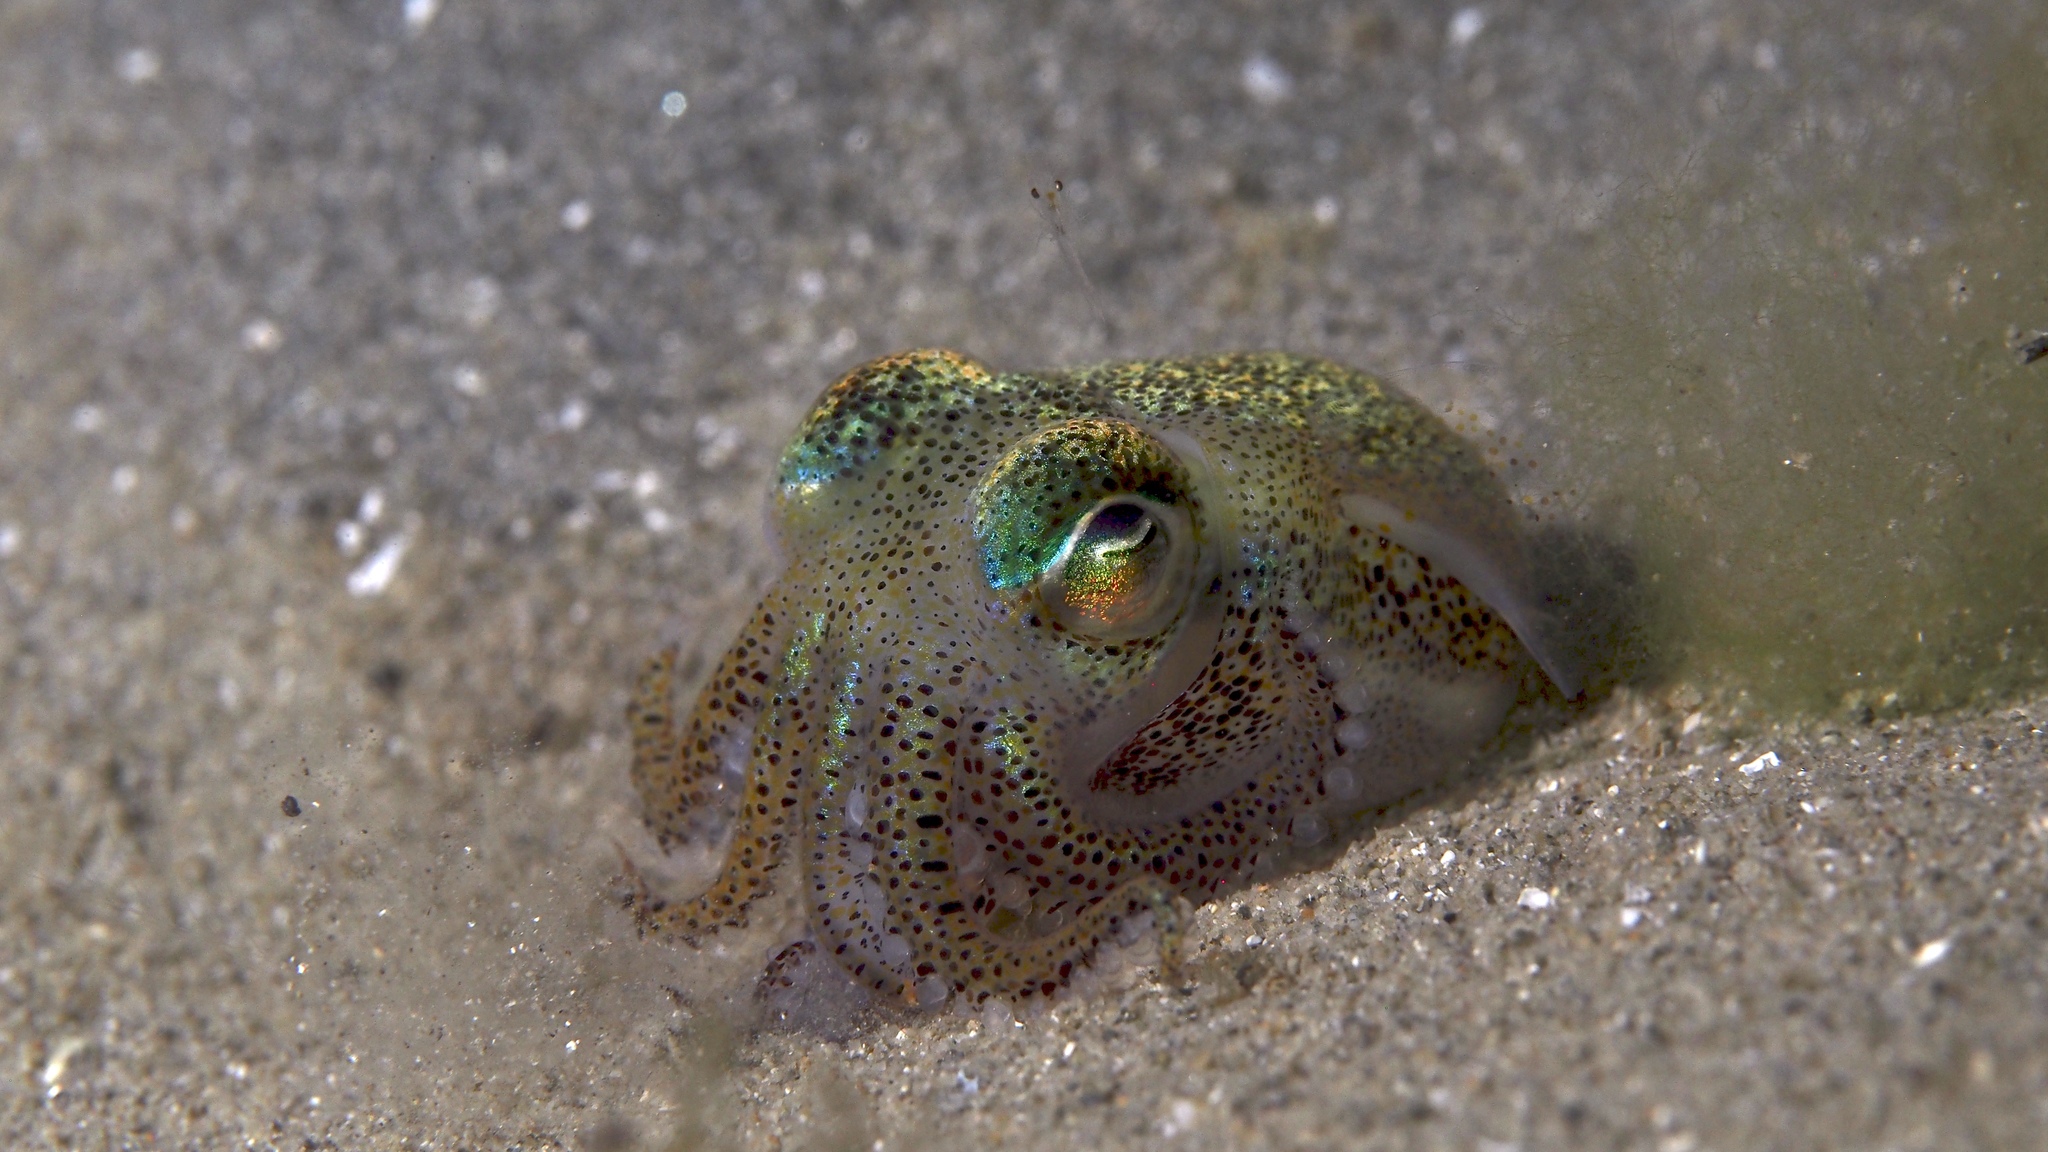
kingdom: Animalia
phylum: Mollusca
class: Cephalopoda
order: Sepiida
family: Sepiolidae
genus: Euprymna
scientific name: Euprymna tasmanica
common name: Southern bobtail squid
